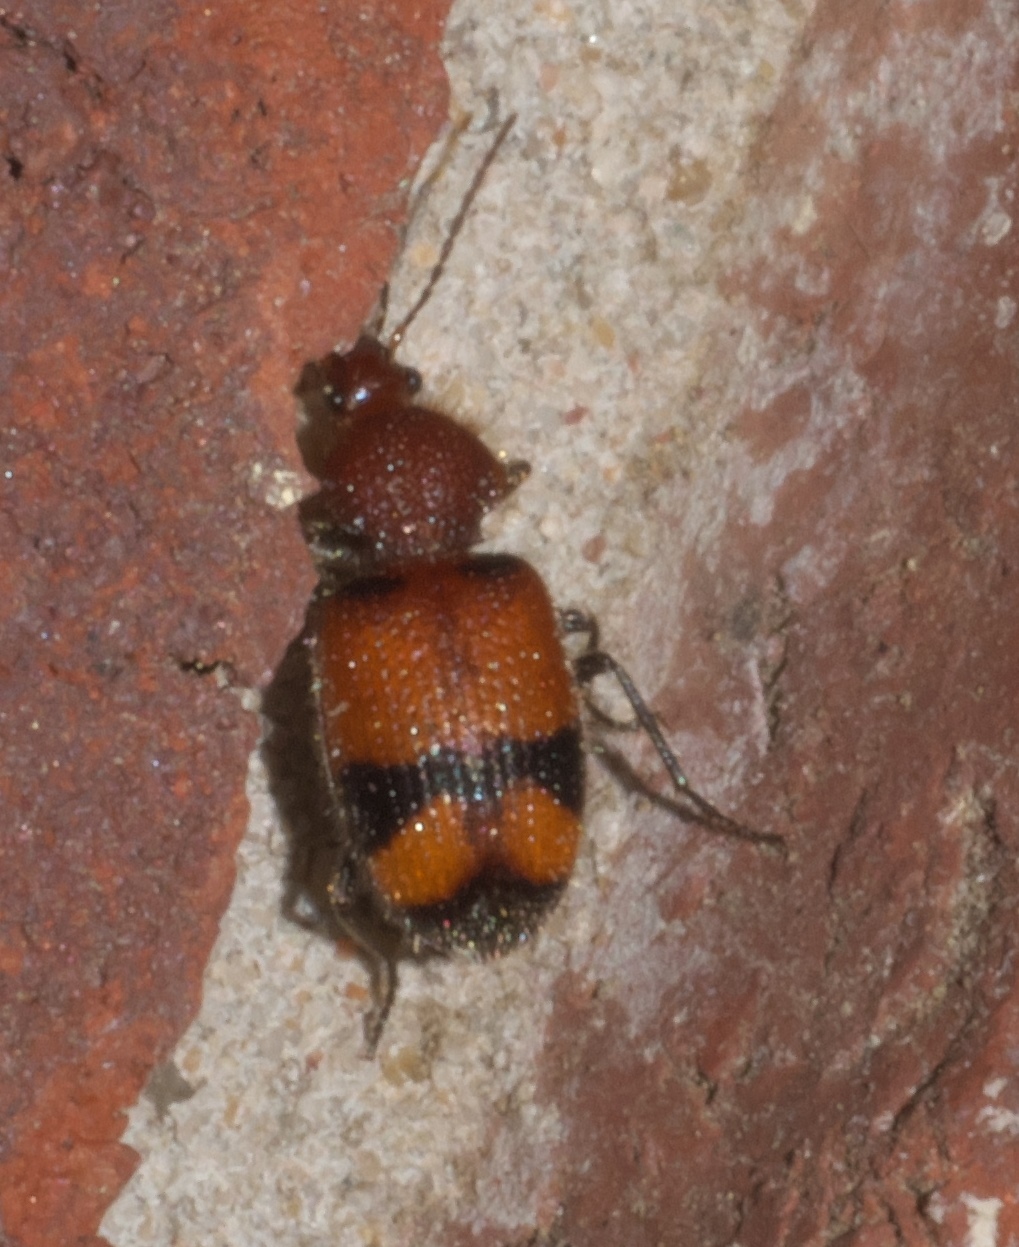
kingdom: Animalia
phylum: Arthropoda
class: Insecta
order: Coleoptera
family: Carabidae
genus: Panagaeus
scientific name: Panagaeus fasciatus
